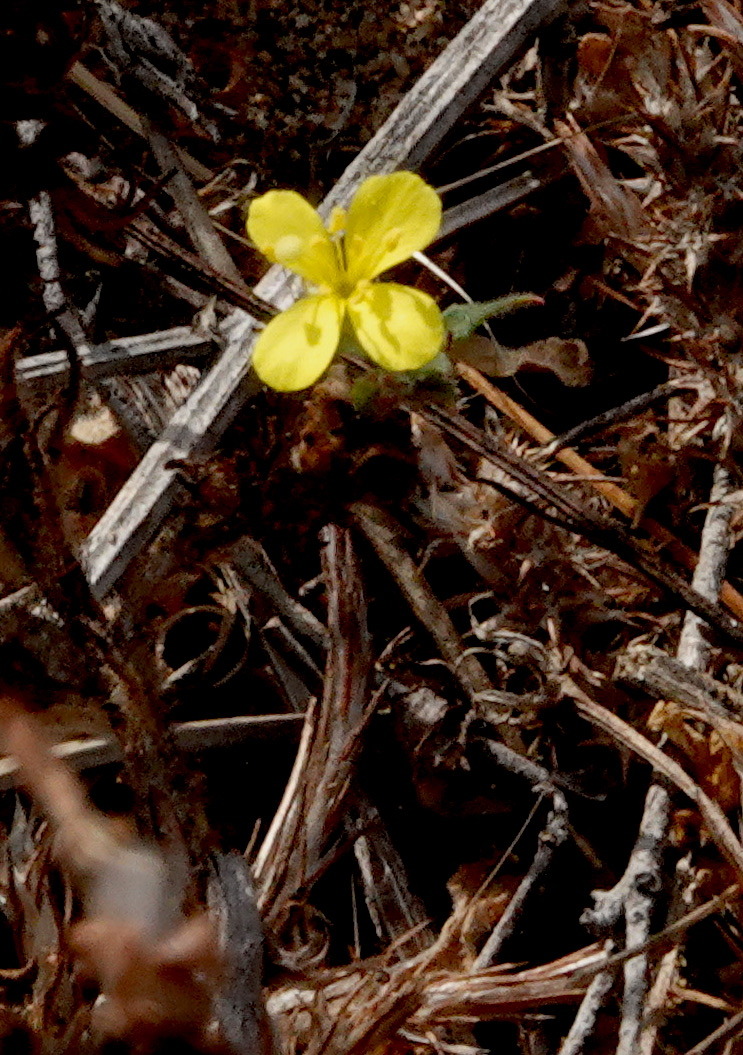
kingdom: Plantae
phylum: Tracheophyta
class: Magnoliopsida
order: Myrtales
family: Onagraceae
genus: Camissoniopsis
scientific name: Camissoniopsis cheiranthifolia
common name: Beach suncup
